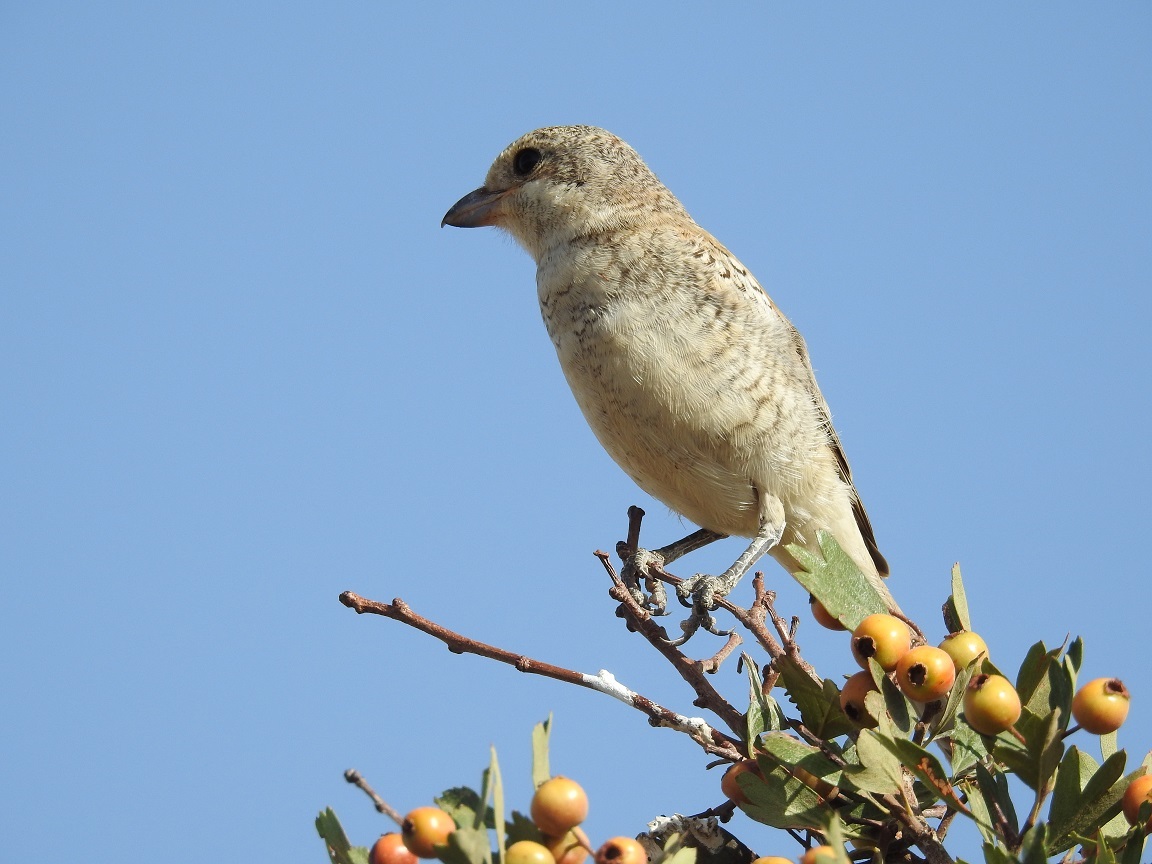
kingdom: Animalia
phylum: Chordata
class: Aves
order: Passeriformes
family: Laniidae
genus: Lanius
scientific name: Lanius senator
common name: Woodchat shrike
